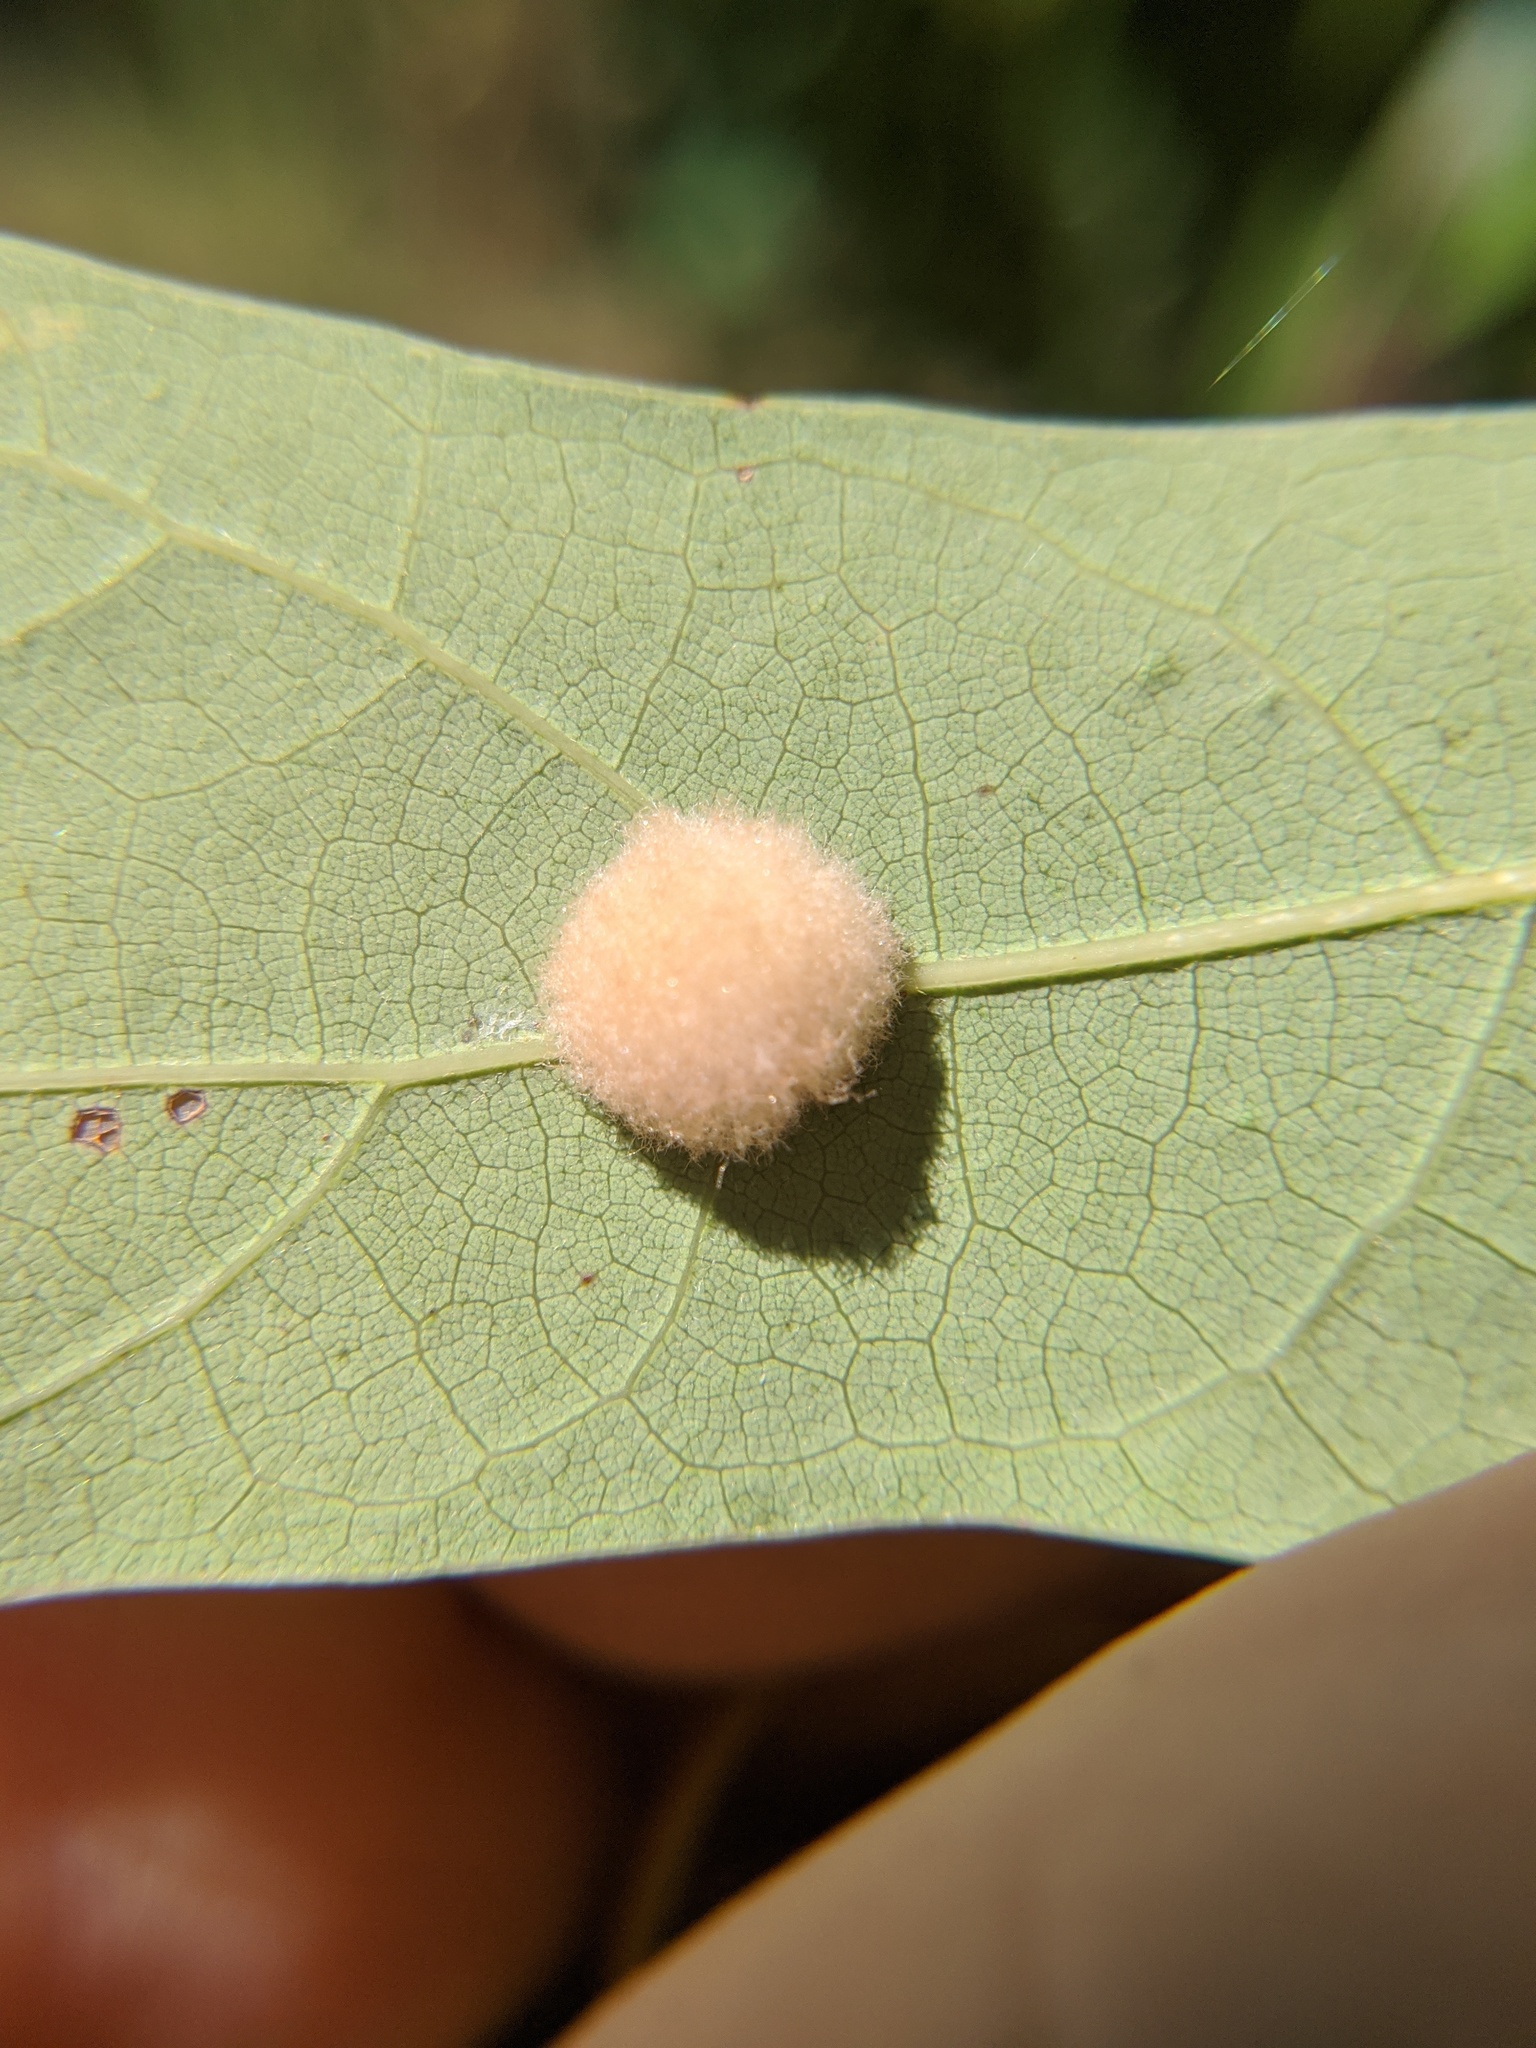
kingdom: Animalia
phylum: Arthropoda
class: Insecta
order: Hymenoptera
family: Cynipidae
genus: Callirhytis
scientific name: Callirhytis
